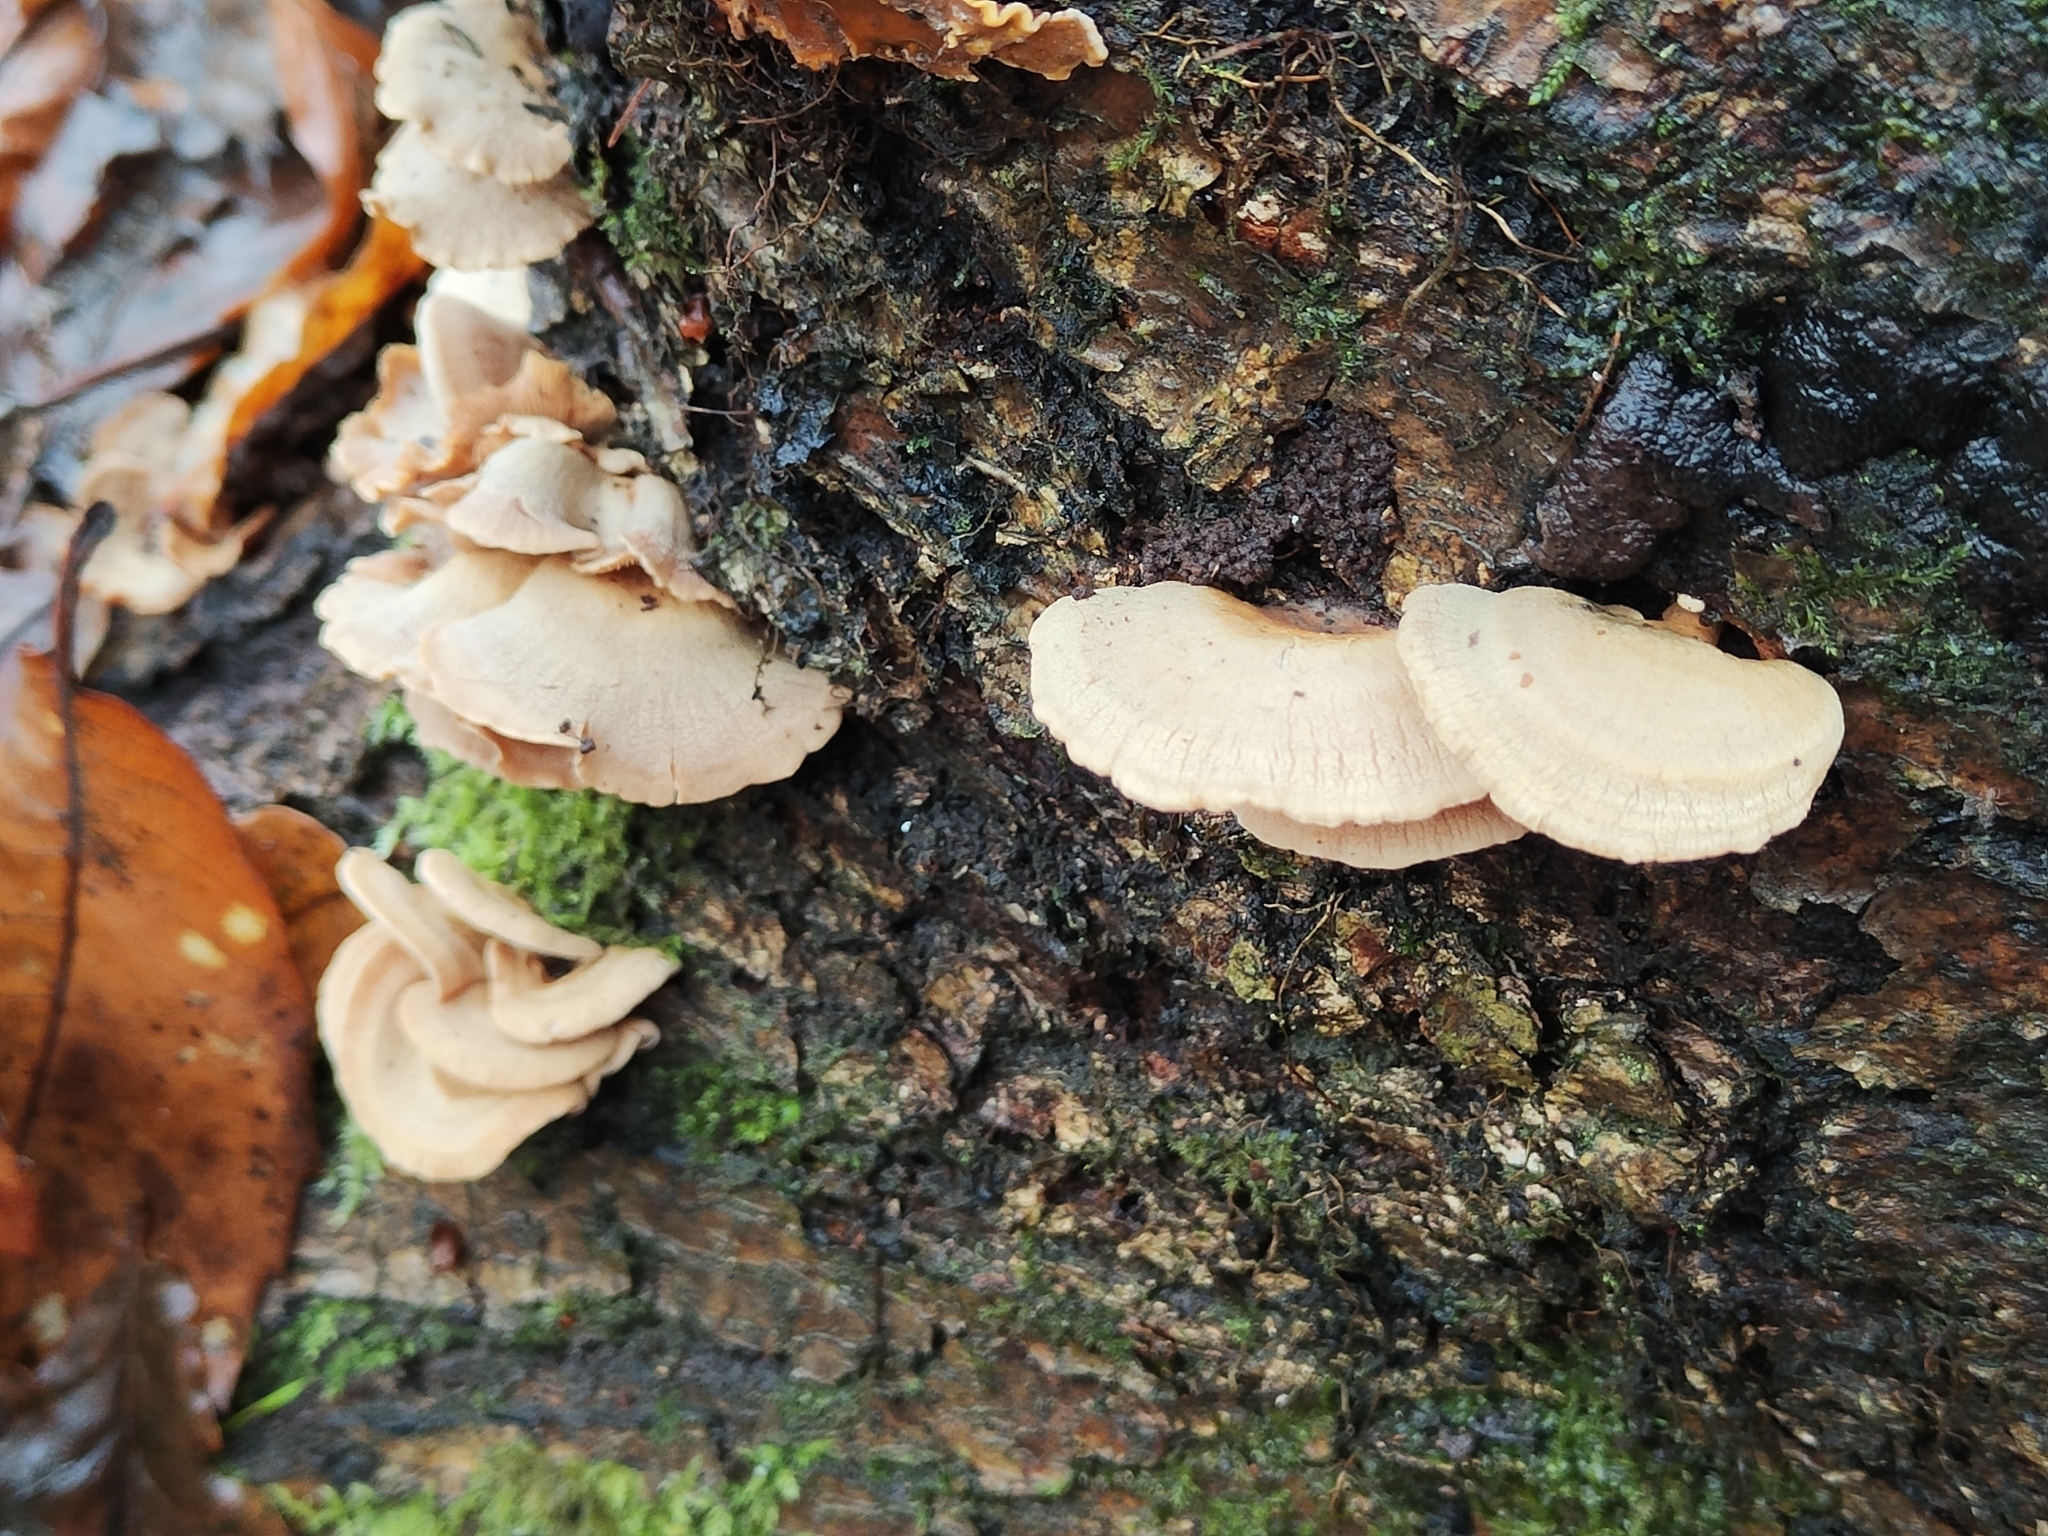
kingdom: Fungi
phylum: Basidiomycota
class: Agaricomycetes
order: Agaricales
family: Mycenaceae
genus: Panellus
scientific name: Panellus stipticus
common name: Bitter oysterling
